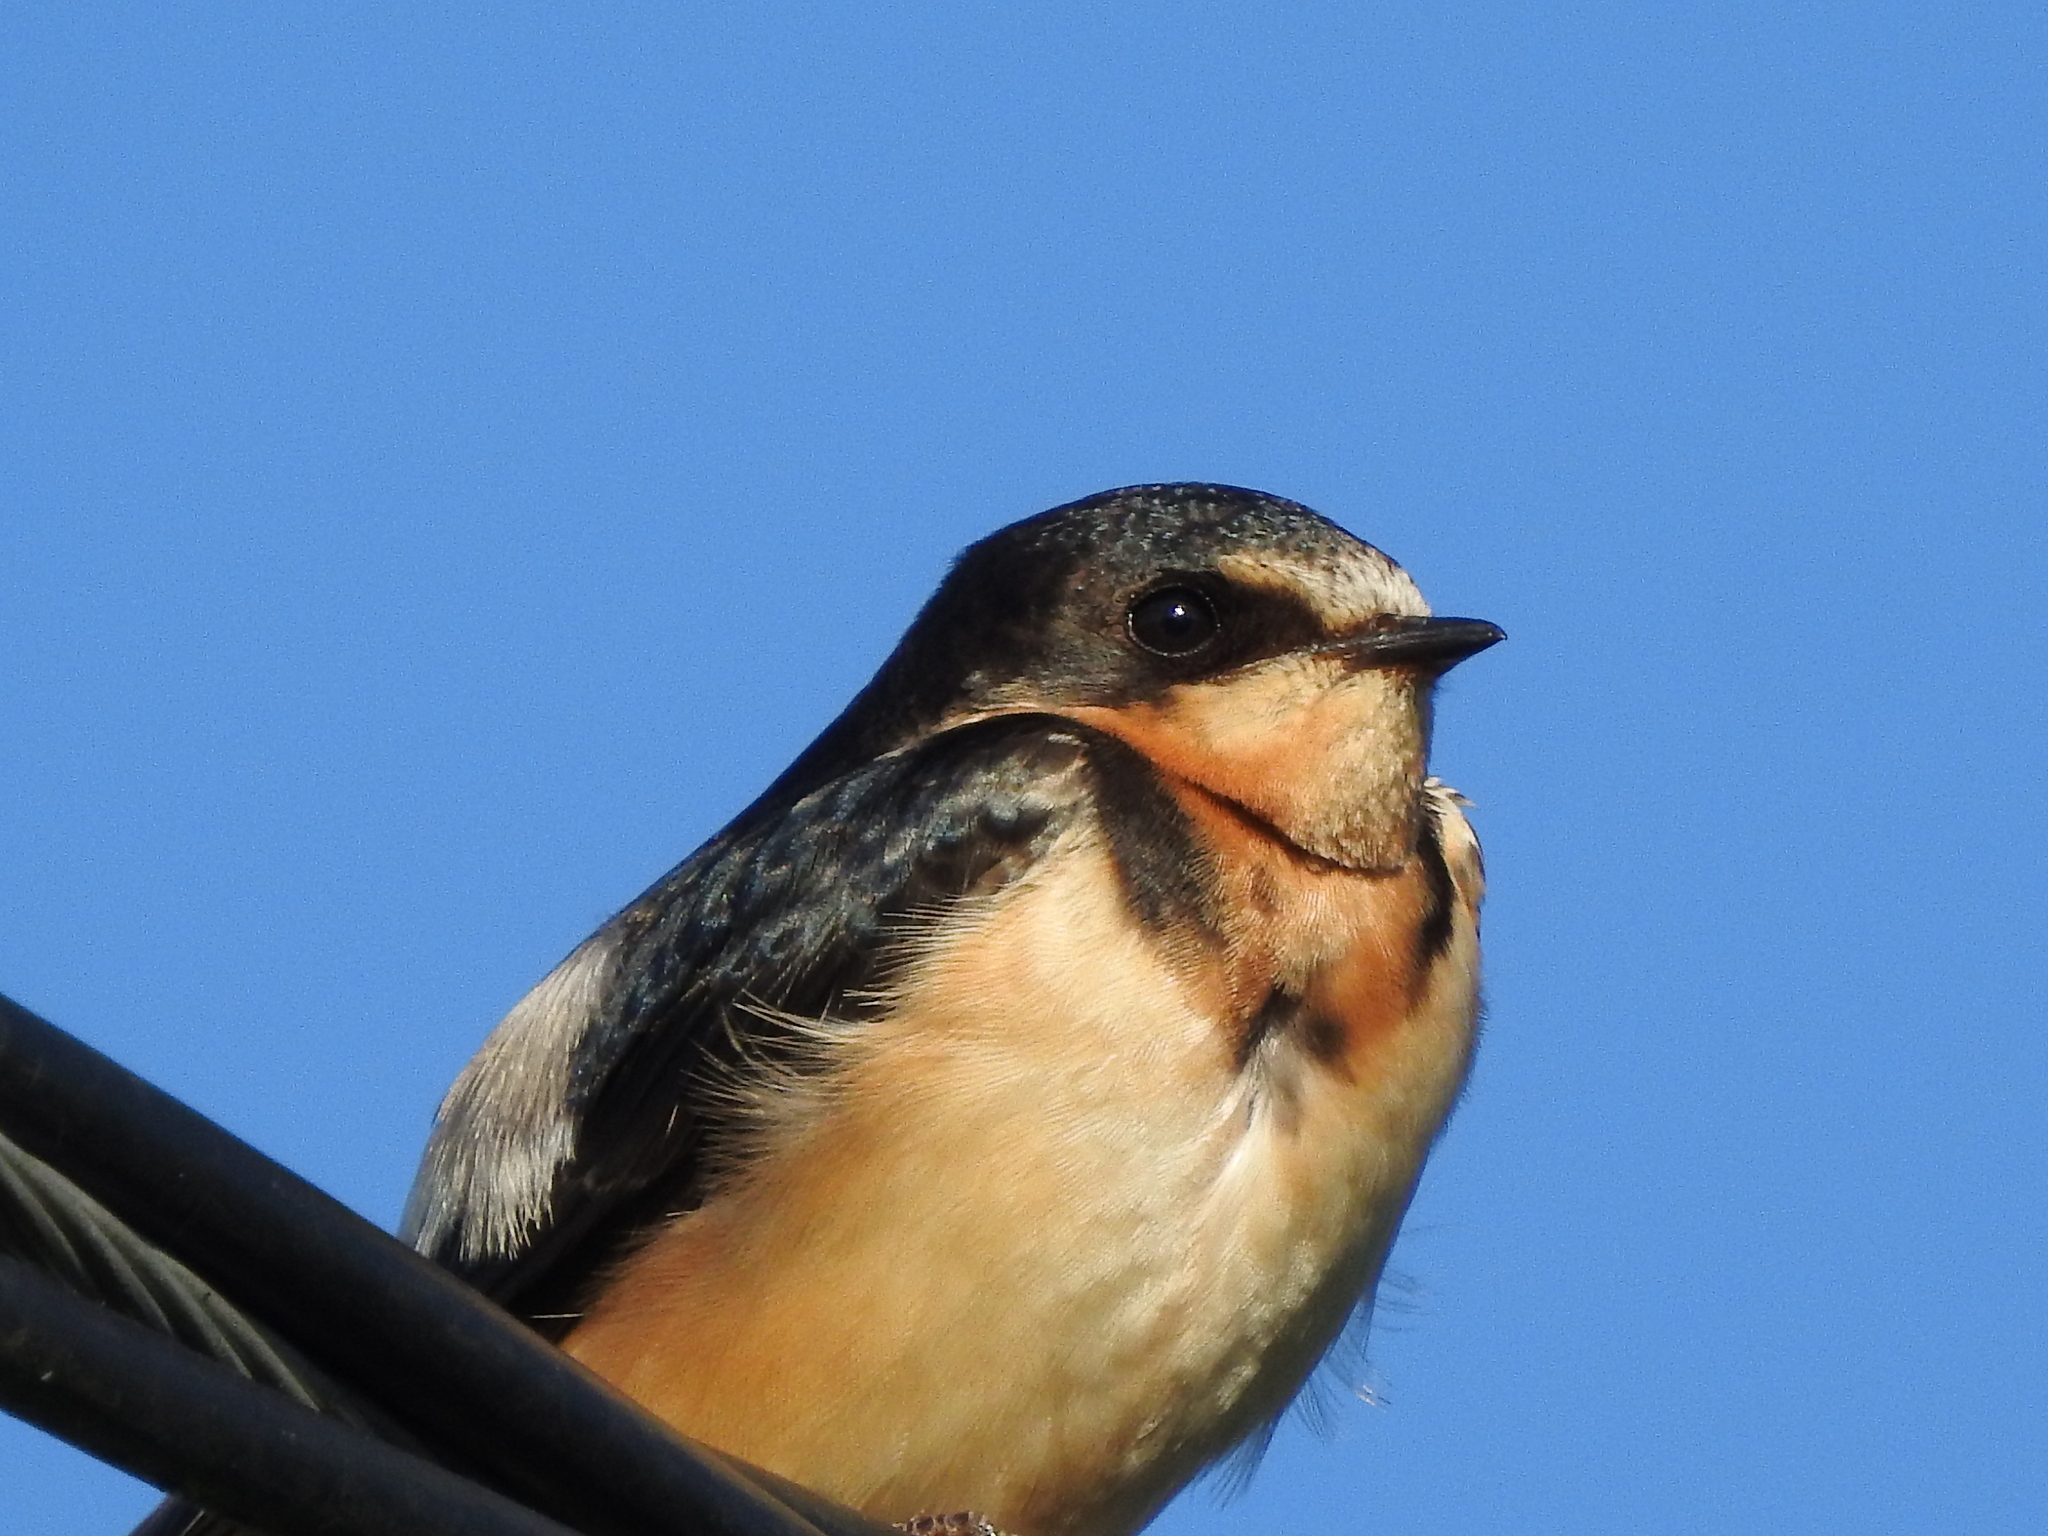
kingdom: Animalia
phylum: Chordata
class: Aves
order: Passeriformes
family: Hirundinidae
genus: Hirundo
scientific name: Hirundo rustica
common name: Barn swallow
